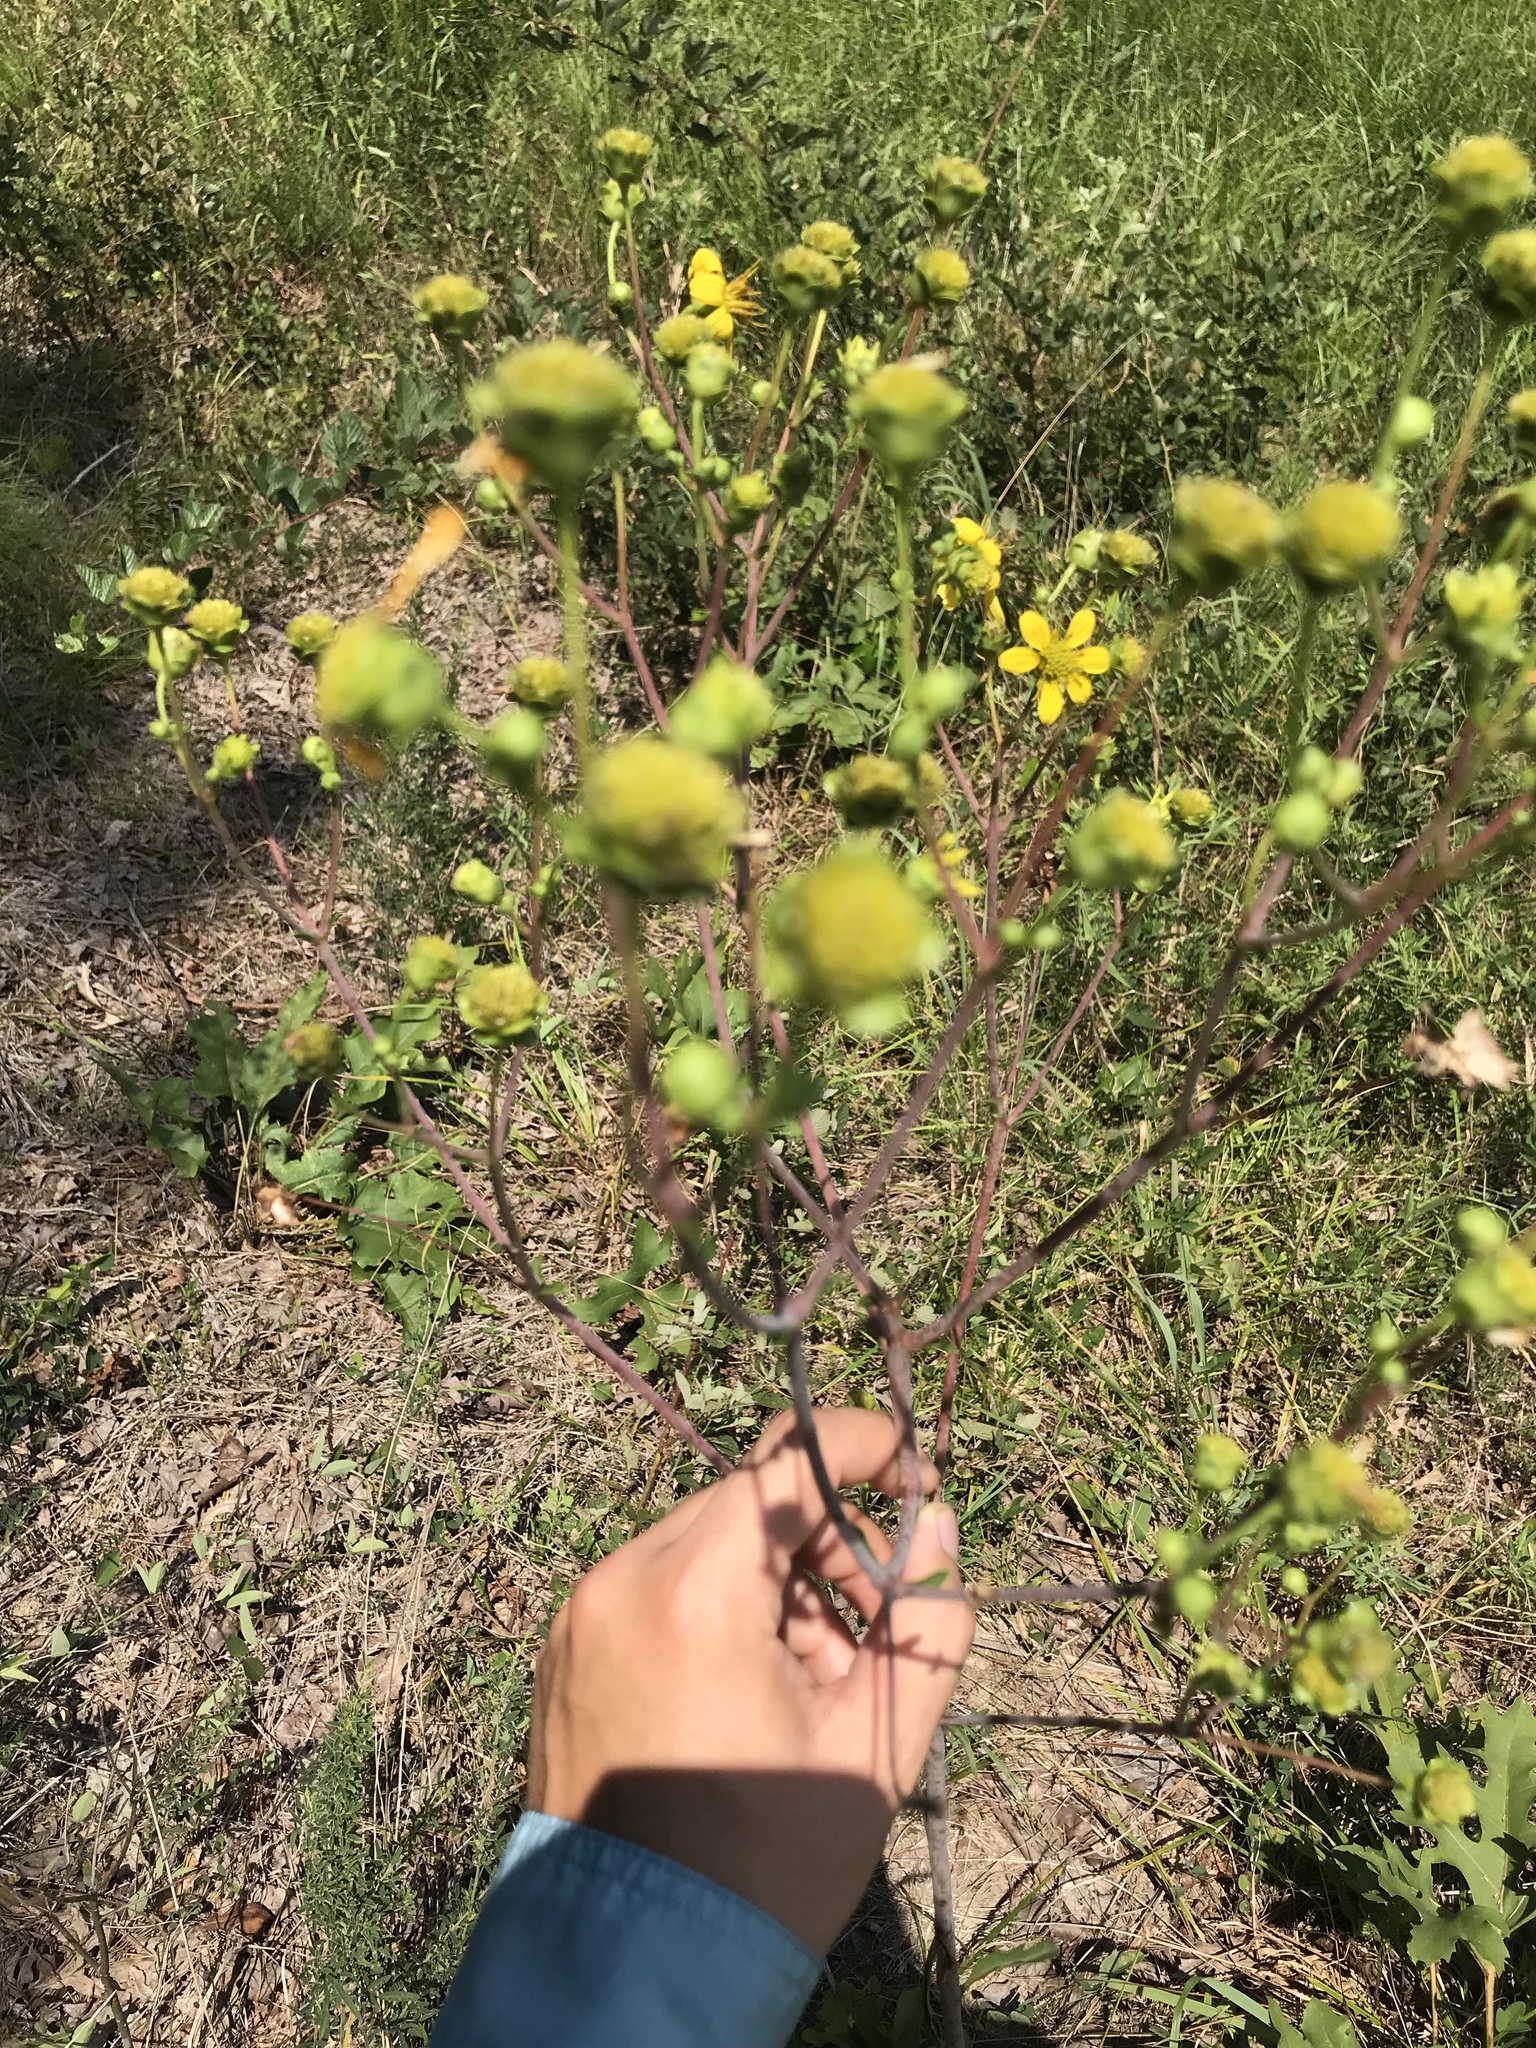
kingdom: Plantae
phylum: Tracheophyta
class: Magnoliopsida
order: Asterales
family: Asteraceae
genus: Silphium
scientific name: Silphium compositum
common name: Lesser basal-leaf rosinweed
